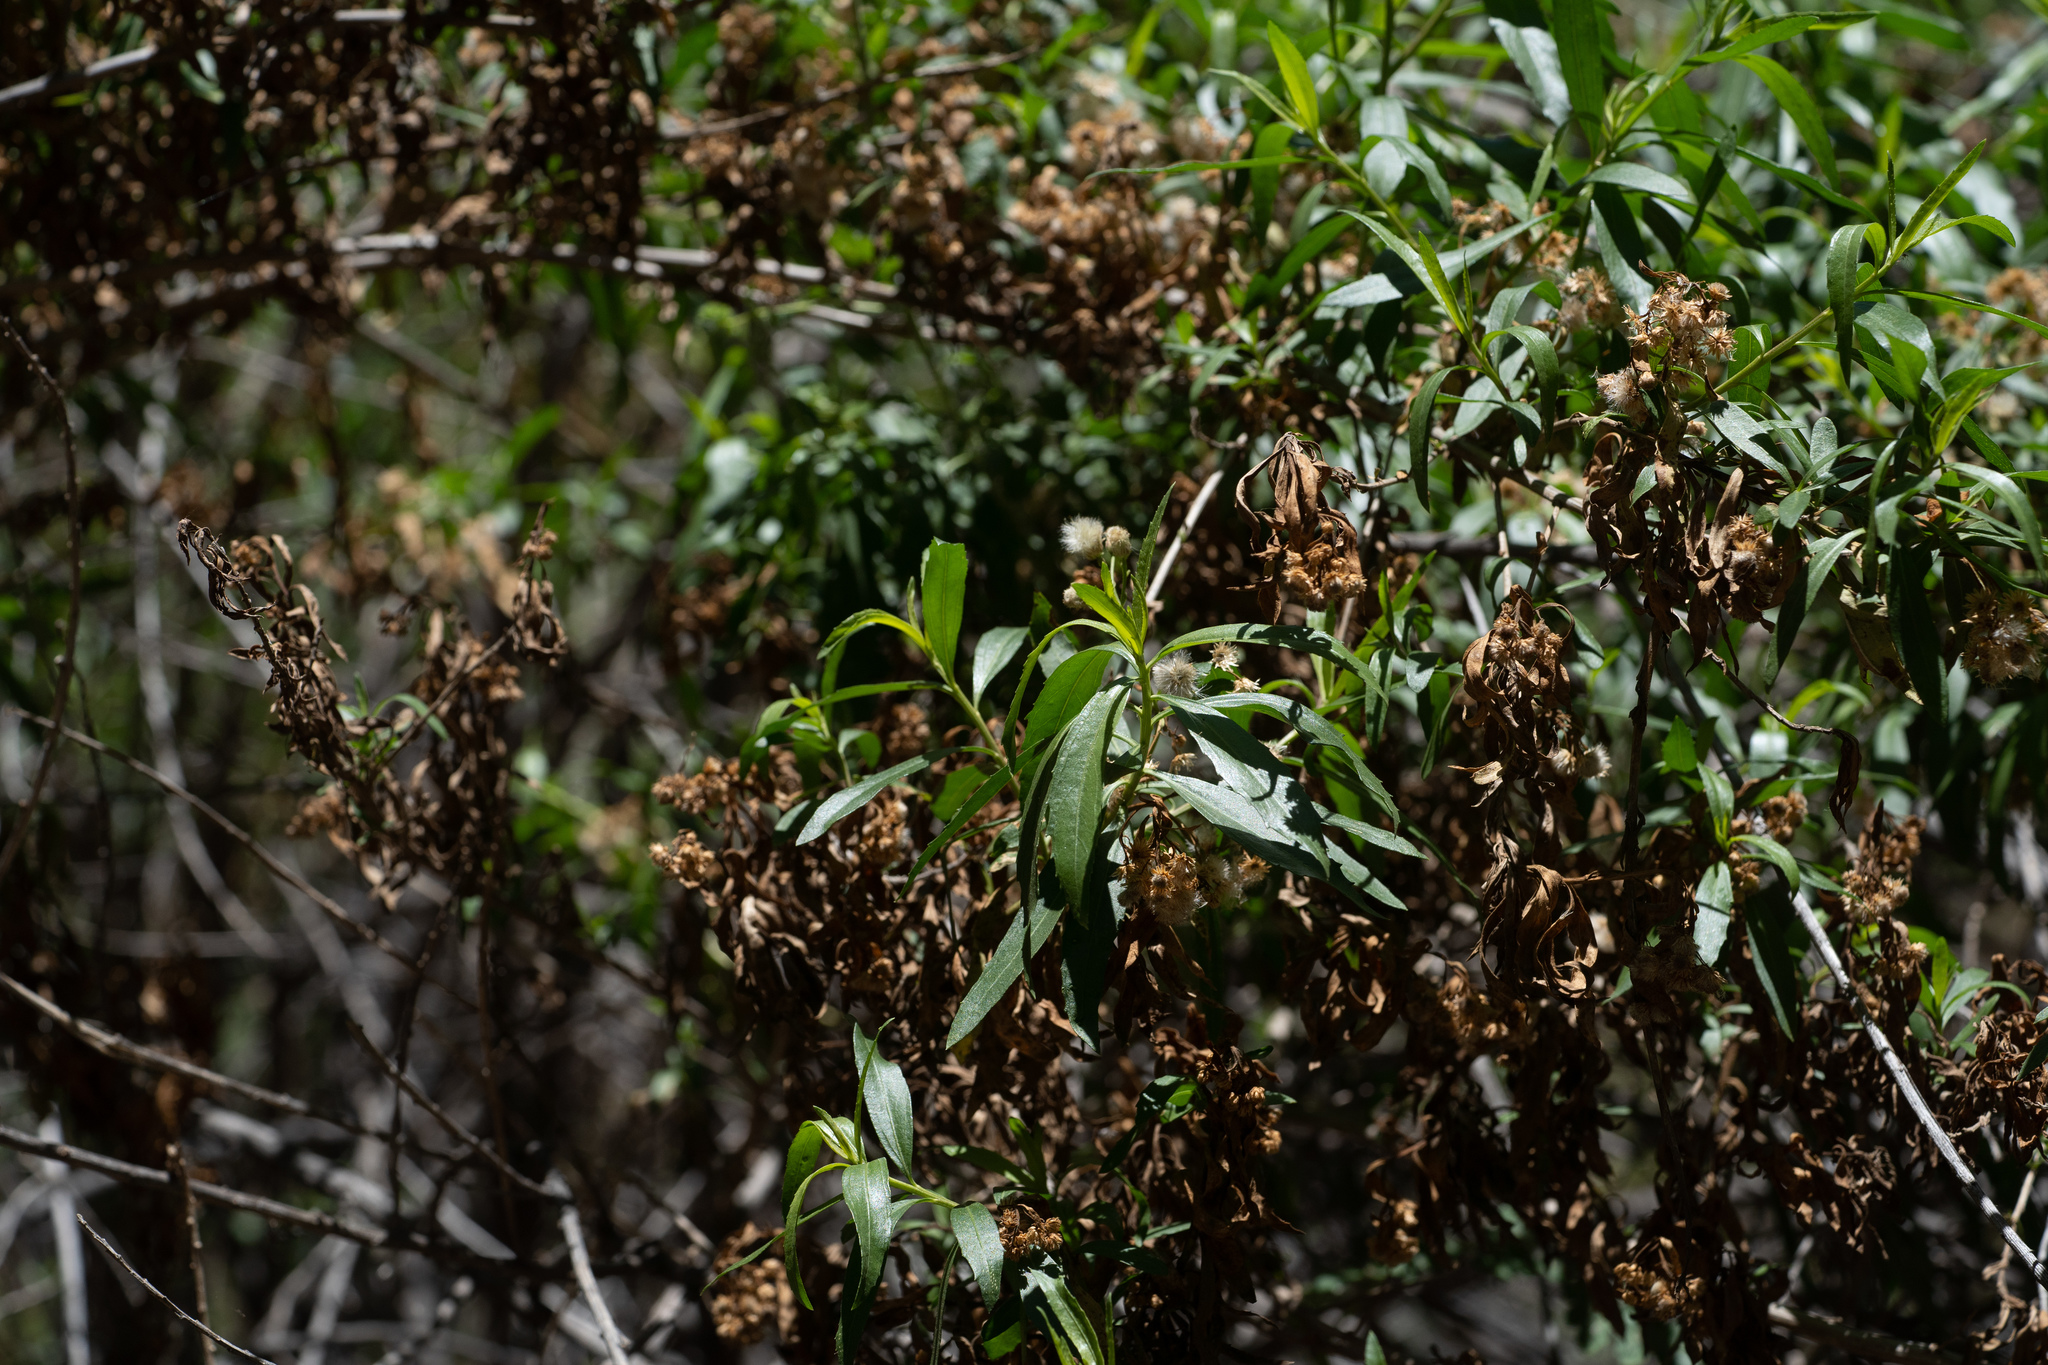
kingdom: Plantae
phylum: Tracheophyta
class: Magnoliopsida
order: Asterales
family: Asteraceae
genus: Baccharis
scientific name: Baccharis salicifolia
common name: Sticky baccharis
